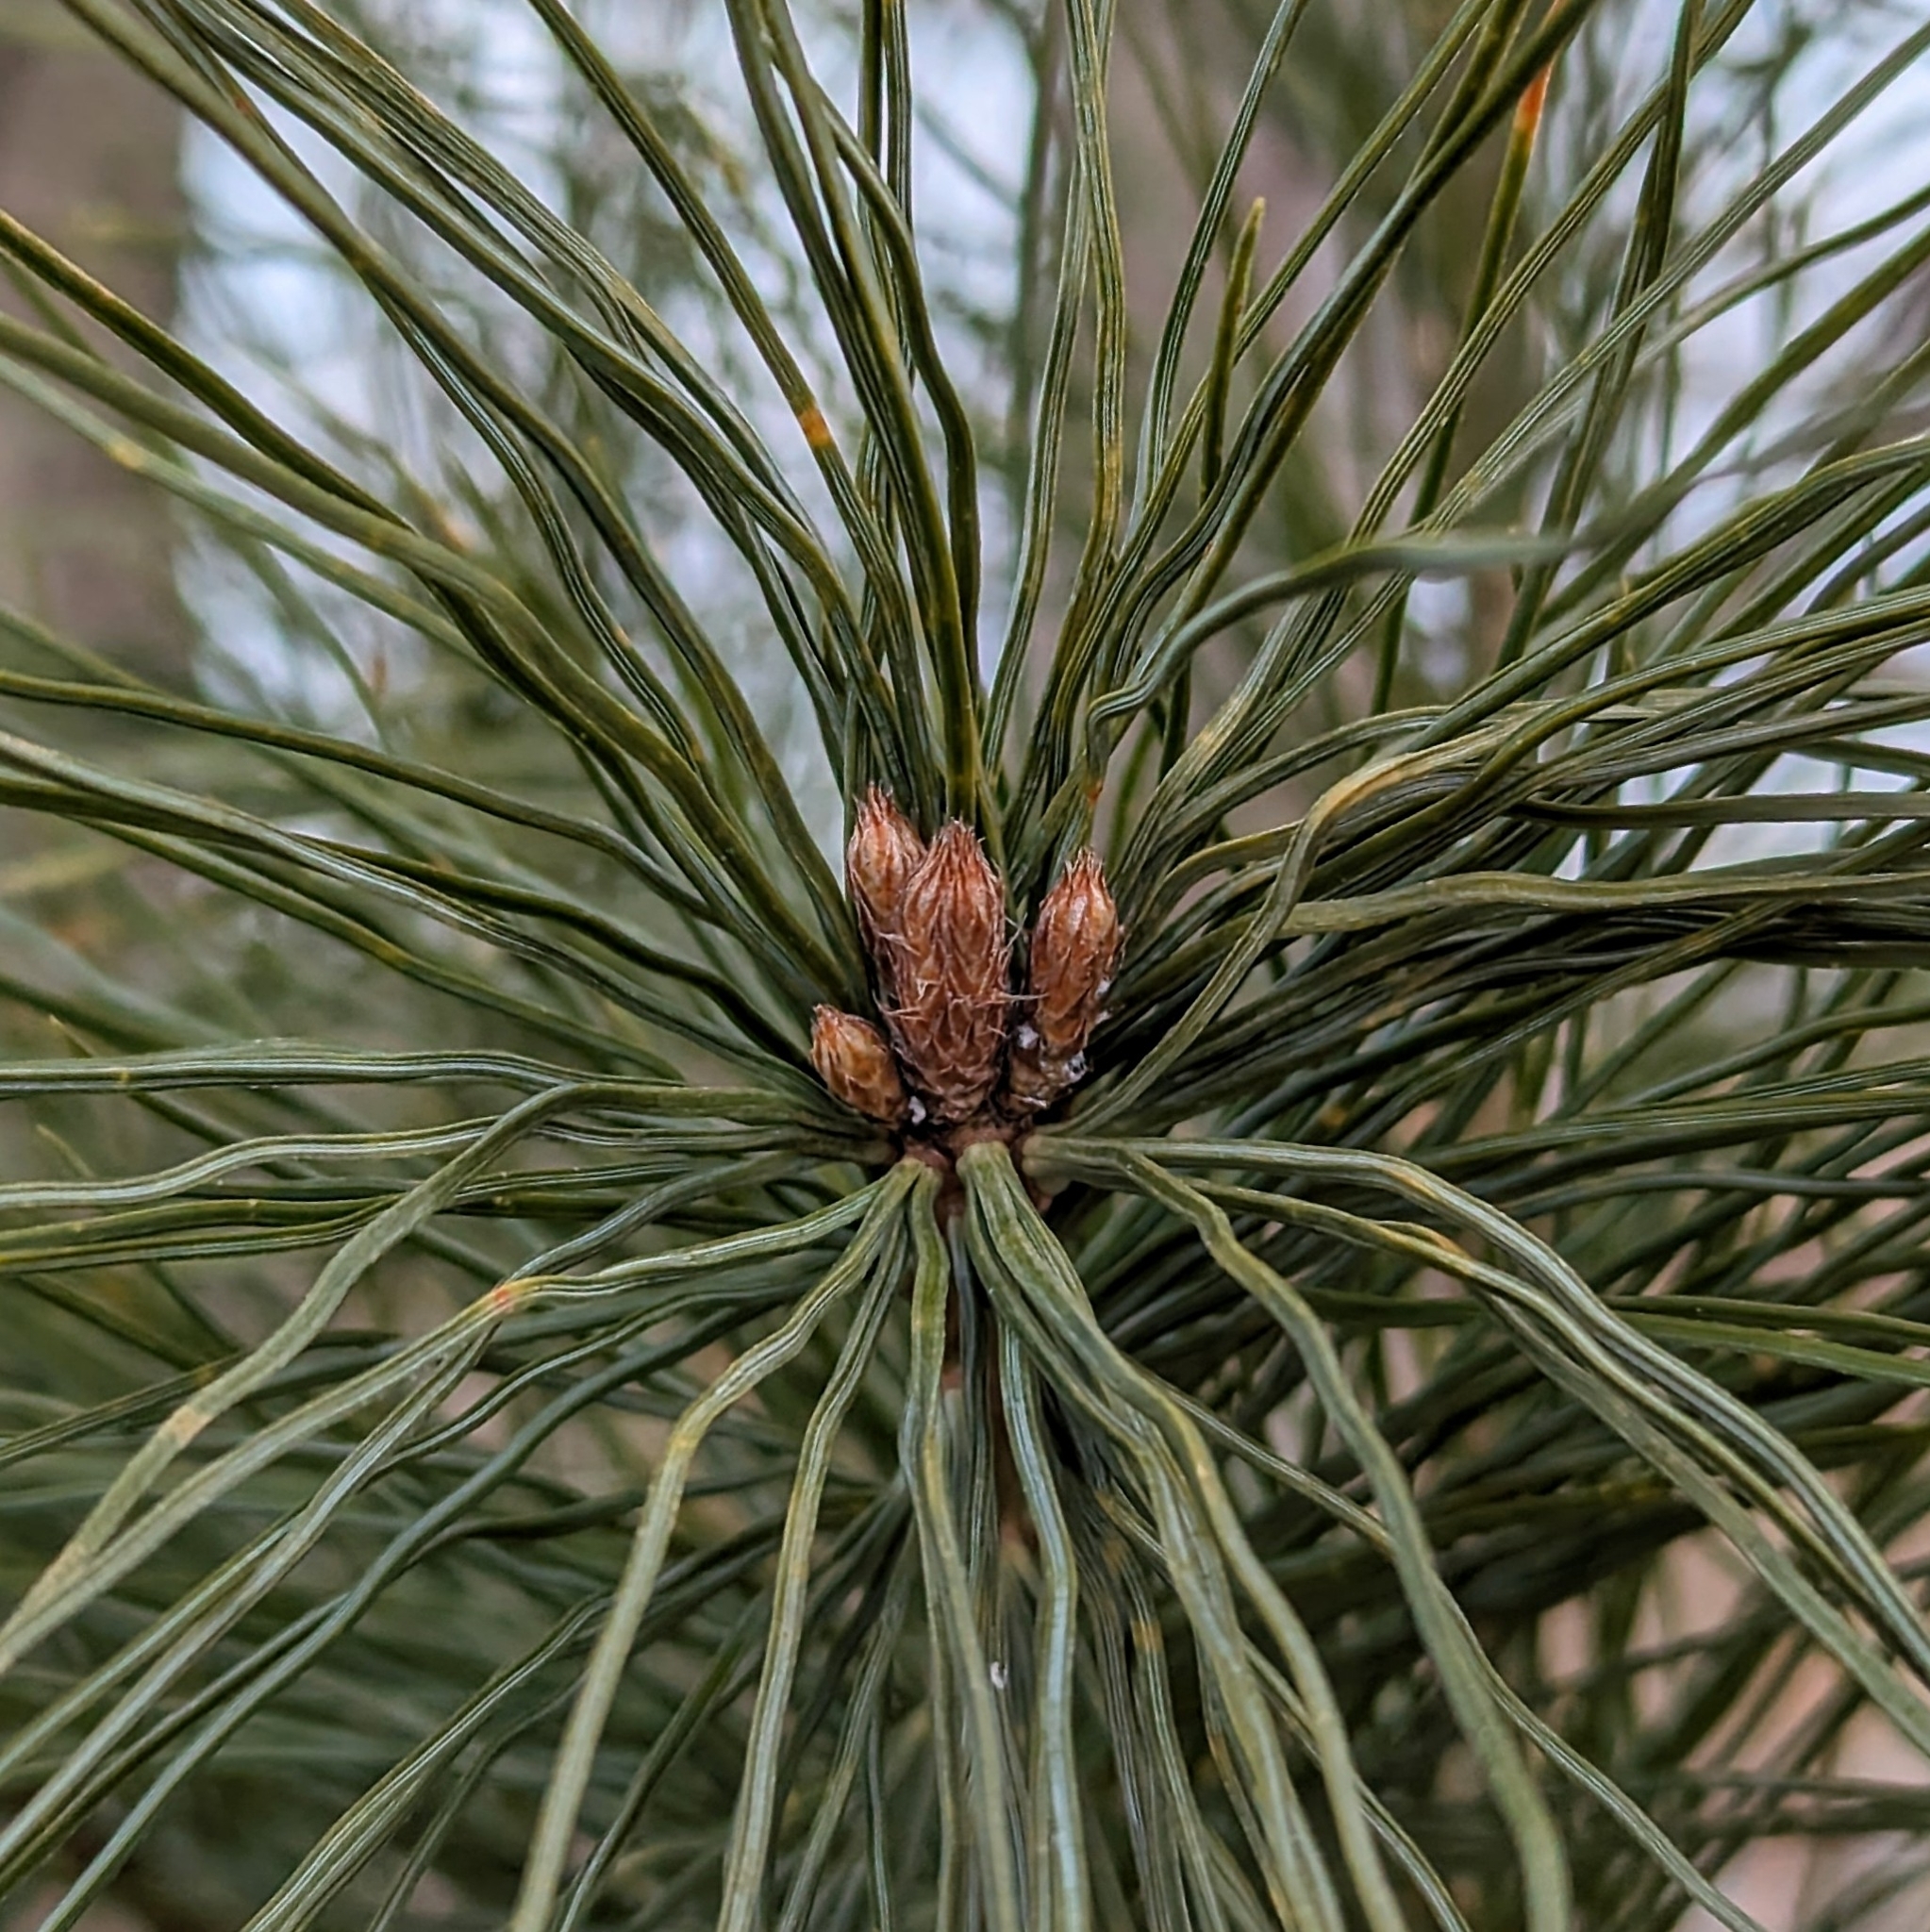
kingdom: Plantae
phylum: Tracheophyta
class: Pinopsida
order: Pinales
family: Pinaceae
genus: Pinus
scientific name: Pinus strobus
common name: Weymouth pine
